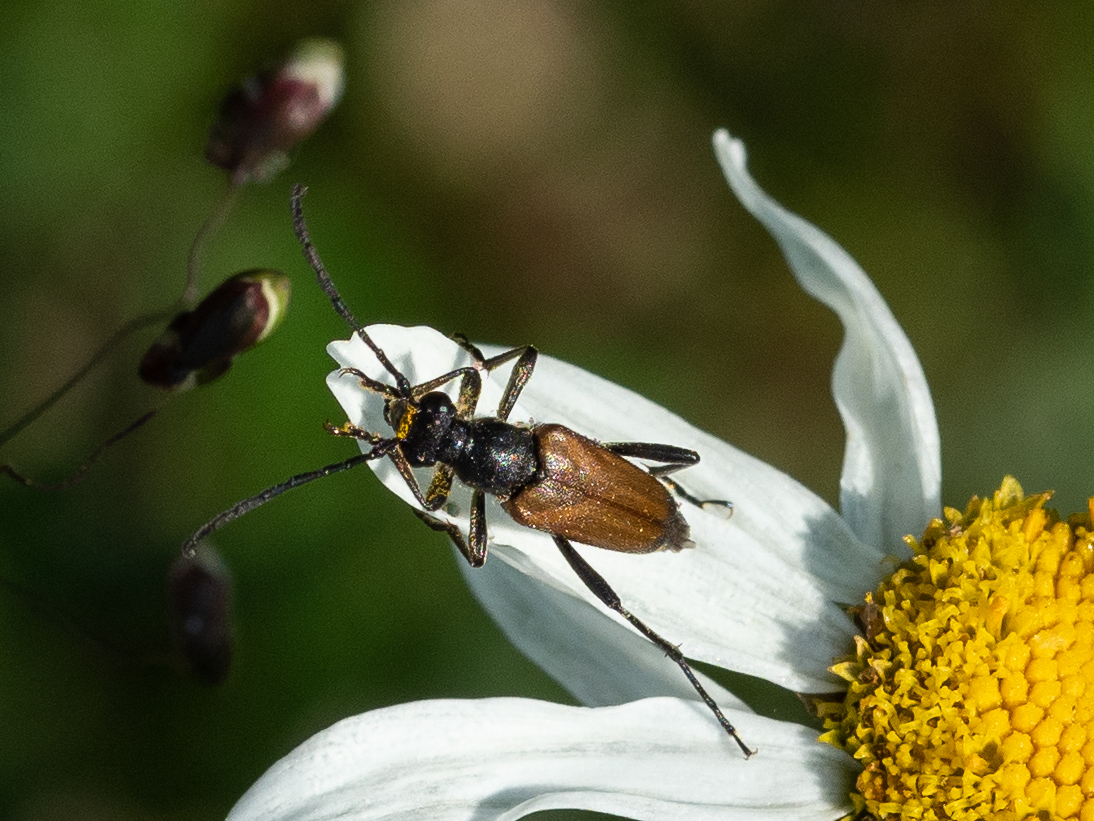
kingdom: Animalia
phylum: Arthropoda
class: Insecta
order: Coleoptera
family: Cerambycidae
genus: Pseudovadonia
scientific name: Pseudovadonia livida
